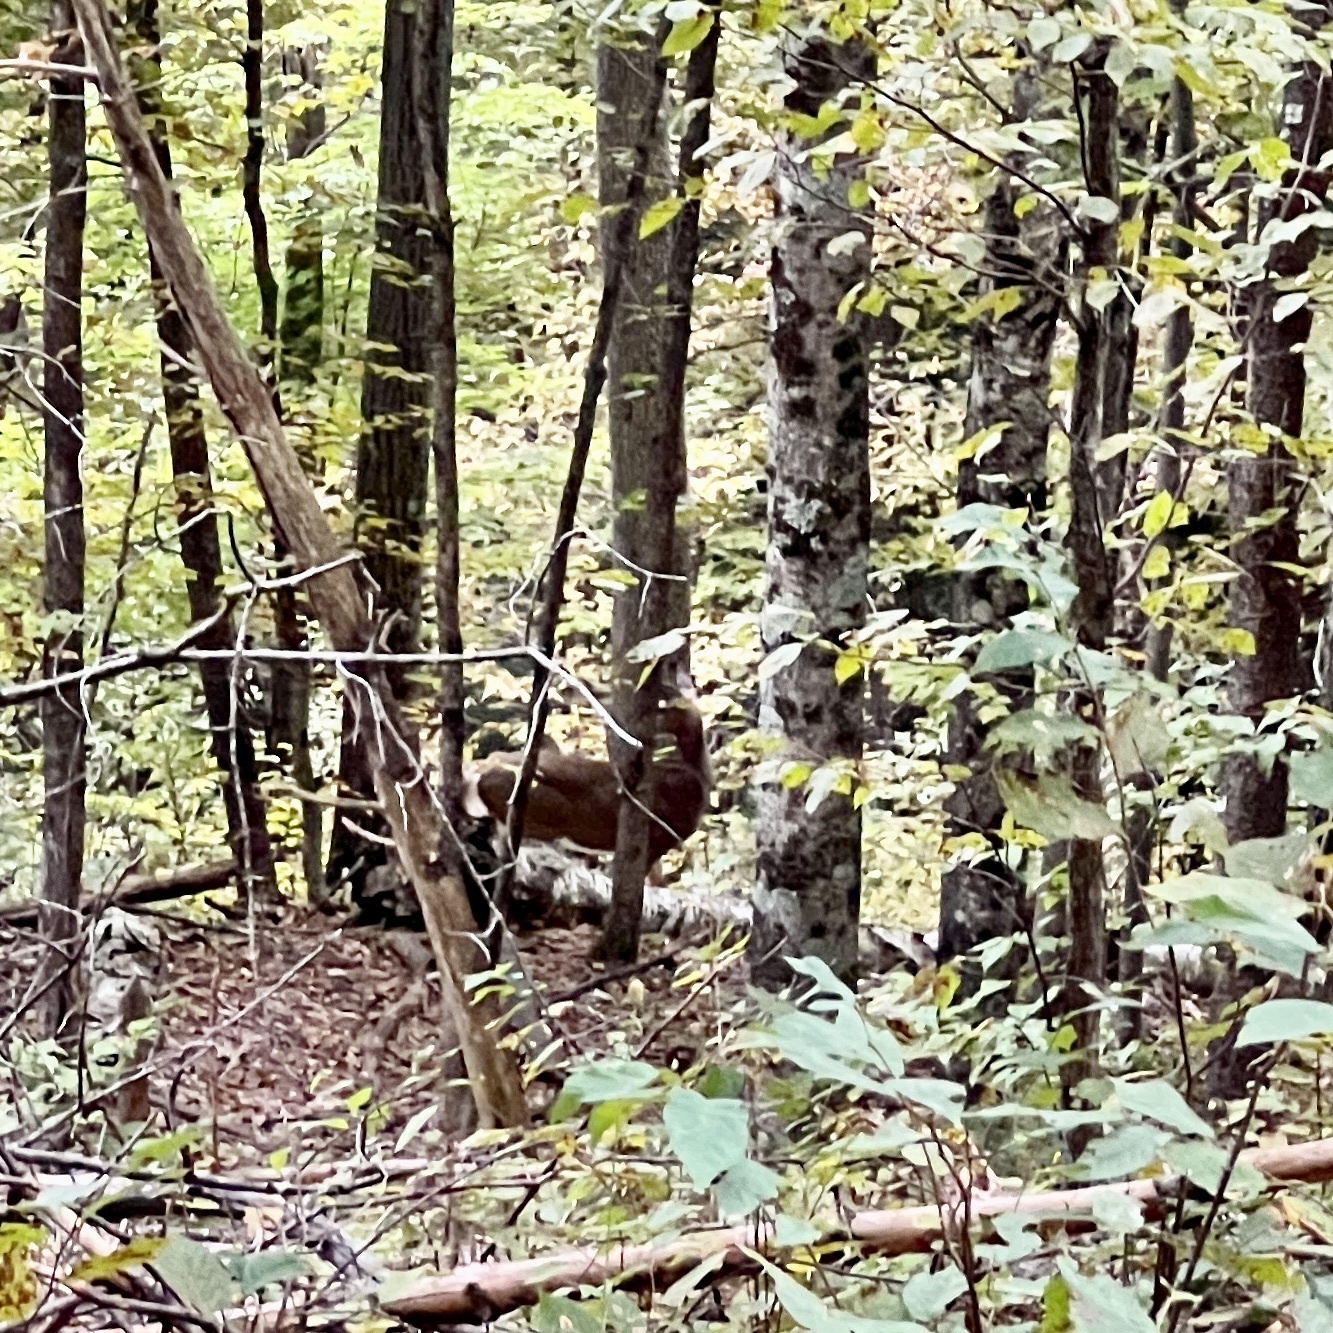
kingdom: Animalia
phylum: Chordata
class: Mammalia
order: Artiodactyla
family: Cervidae
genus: Odocoileus
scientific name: Odocoileus virginianus
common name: White-tailed deer
